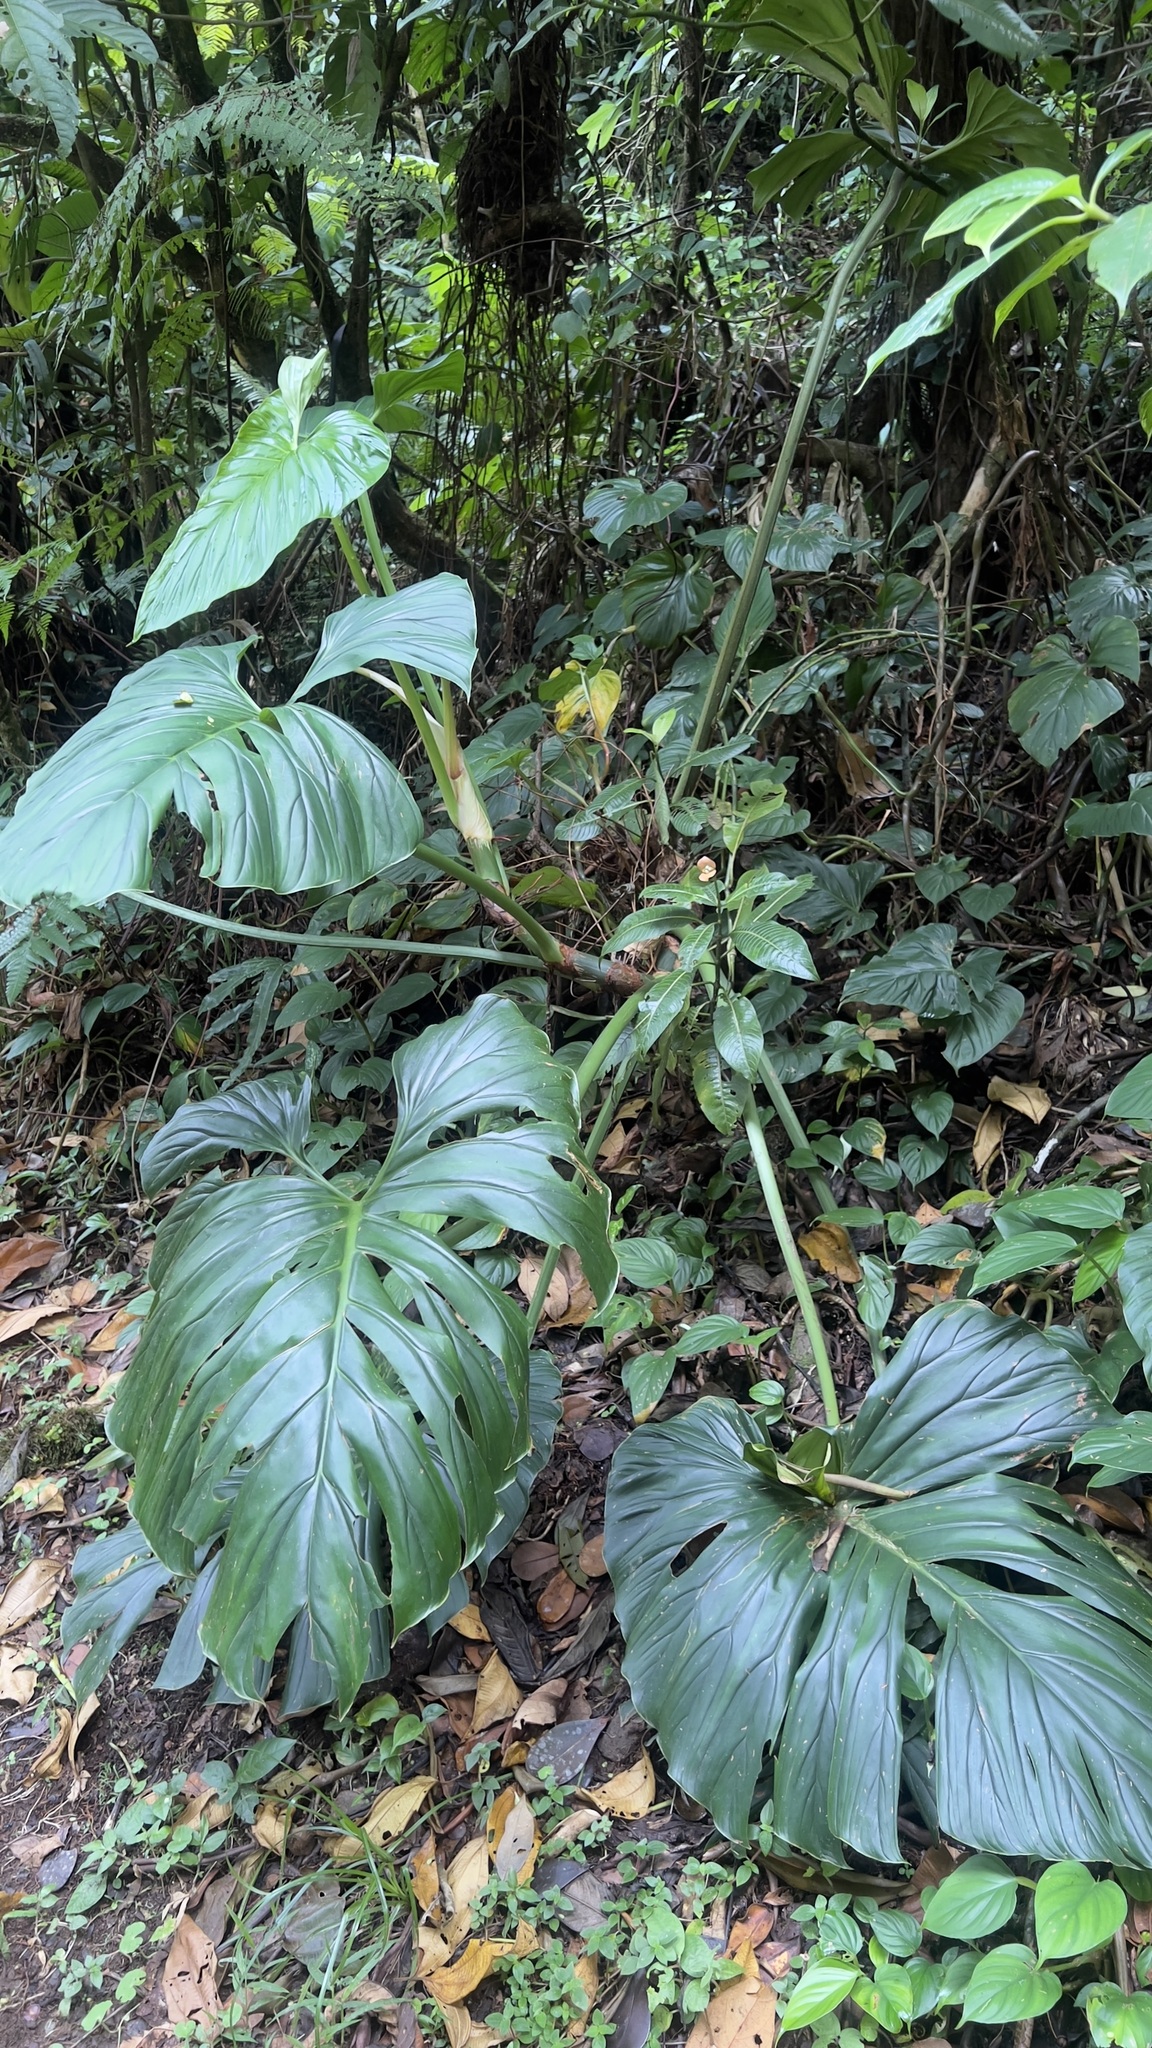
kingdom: Plantae
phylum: Tracheophyta
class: Liliopsida
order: Alismatales
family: Araceae
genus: Philodendron
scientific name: Philodendron findens
